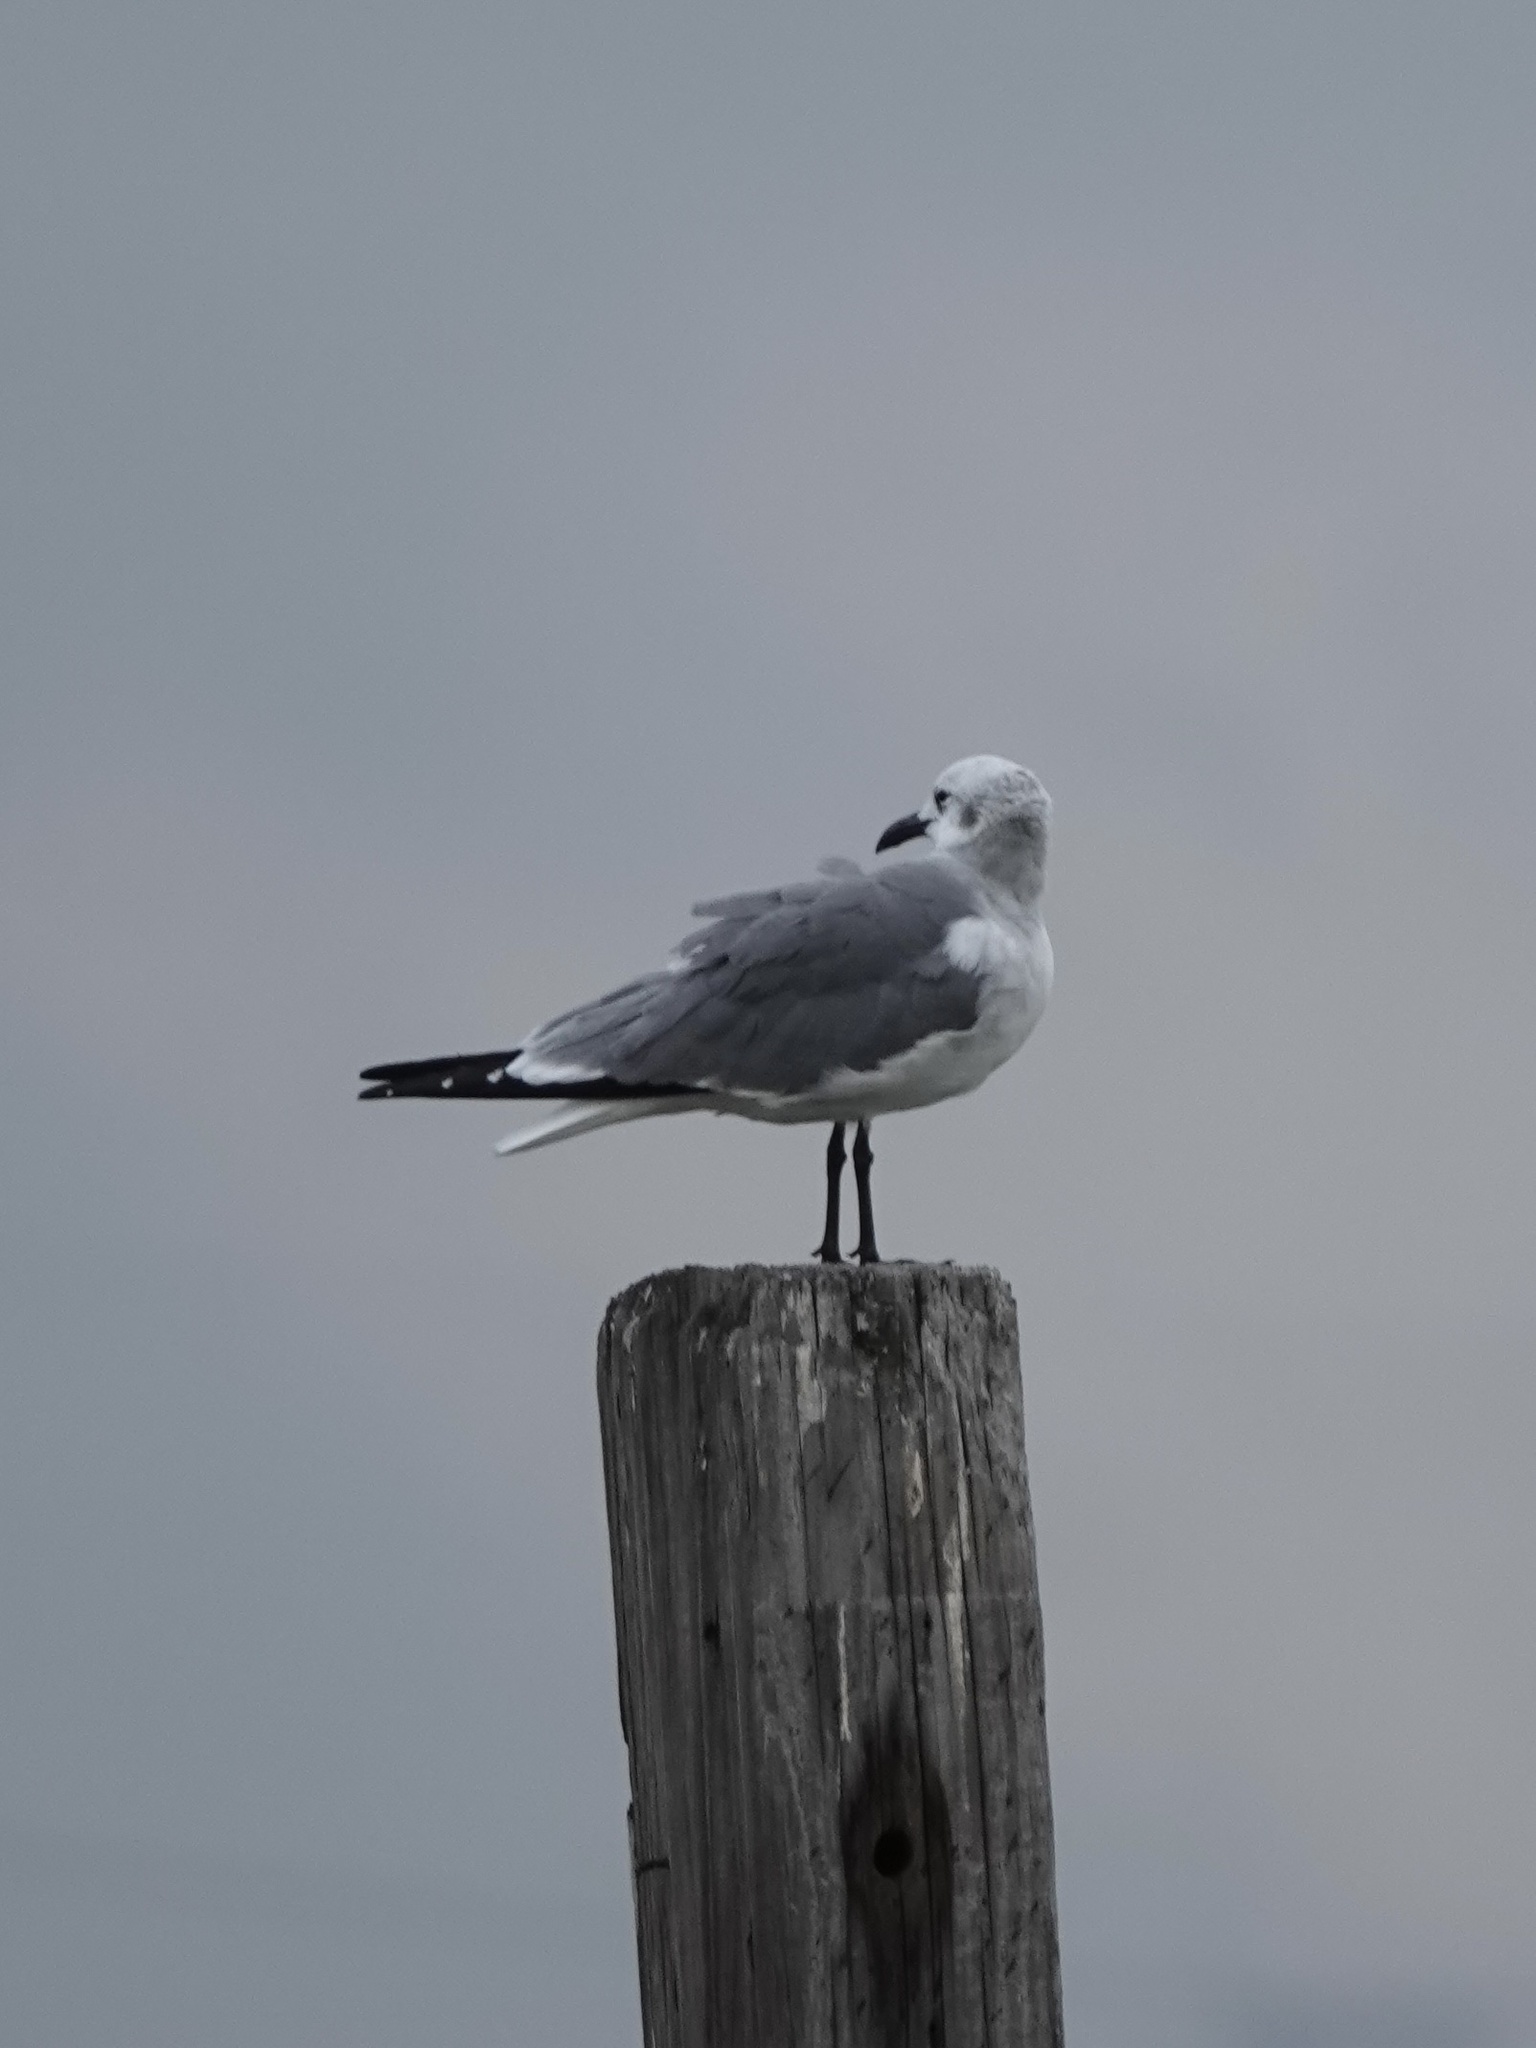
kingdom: Animalia
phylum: Chordata
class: Aves
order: Charadriiformes
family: Laridae
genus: Leucophaeus
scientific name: Leucophaeus atricilla
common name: Laughing gull
